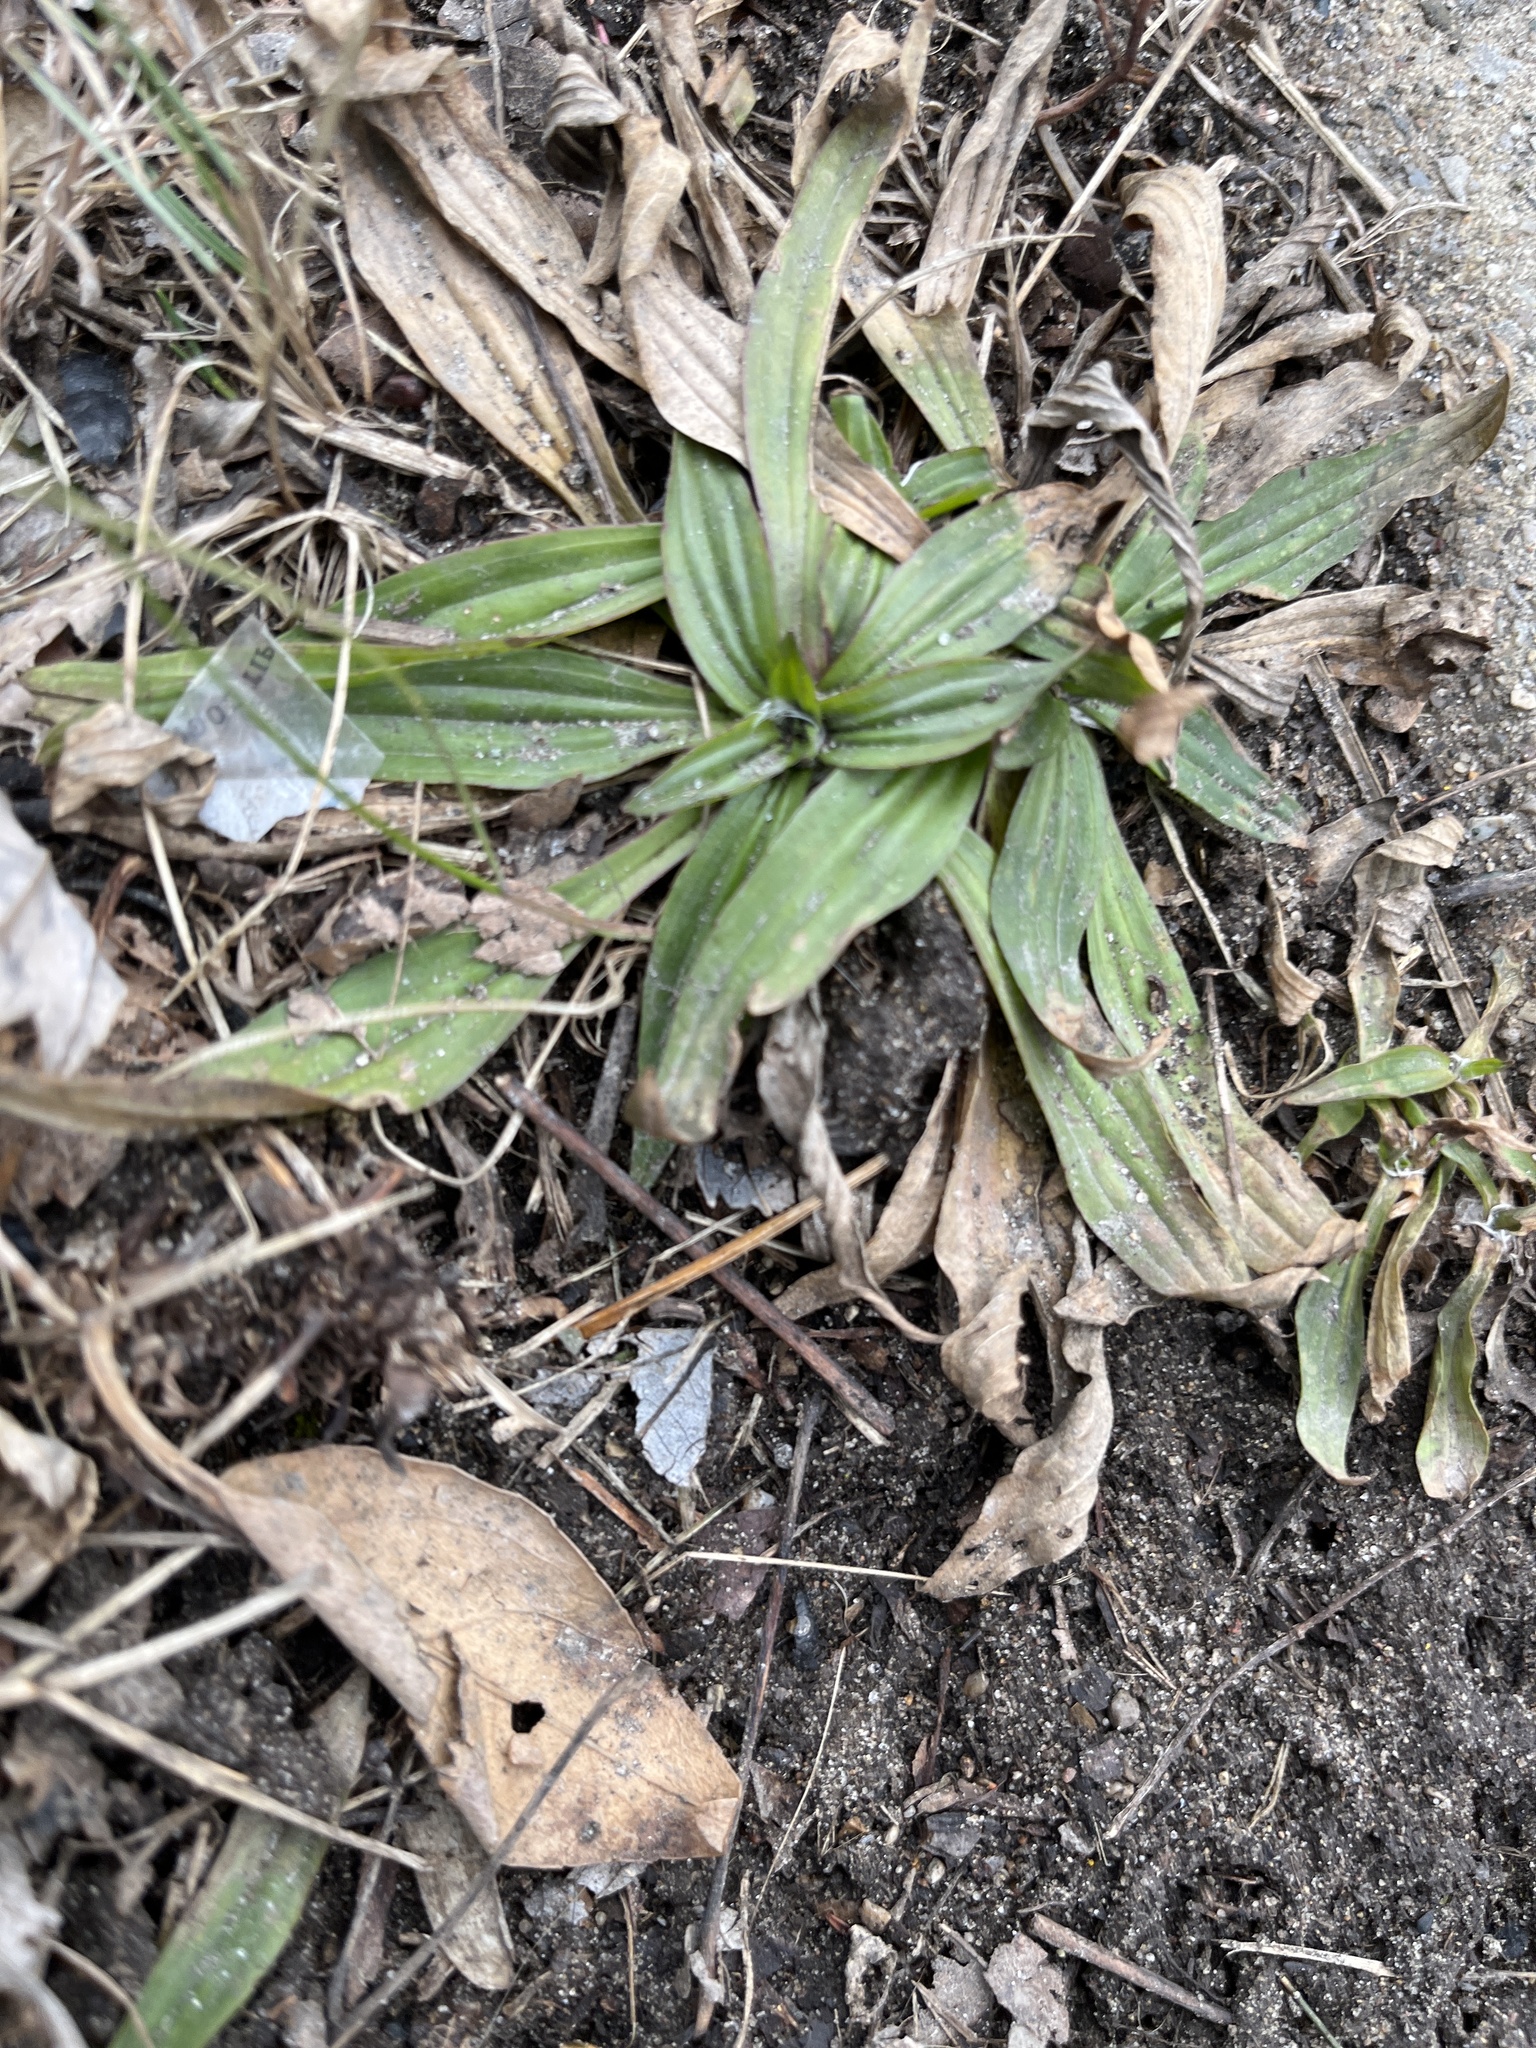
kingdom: Plantae
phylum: Tracheophyta
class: Magnoliopsida
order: Lamiales
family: Plantaginaceae
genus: Plantago
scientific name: Plantago lanceolata
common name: Ribwort plantain
